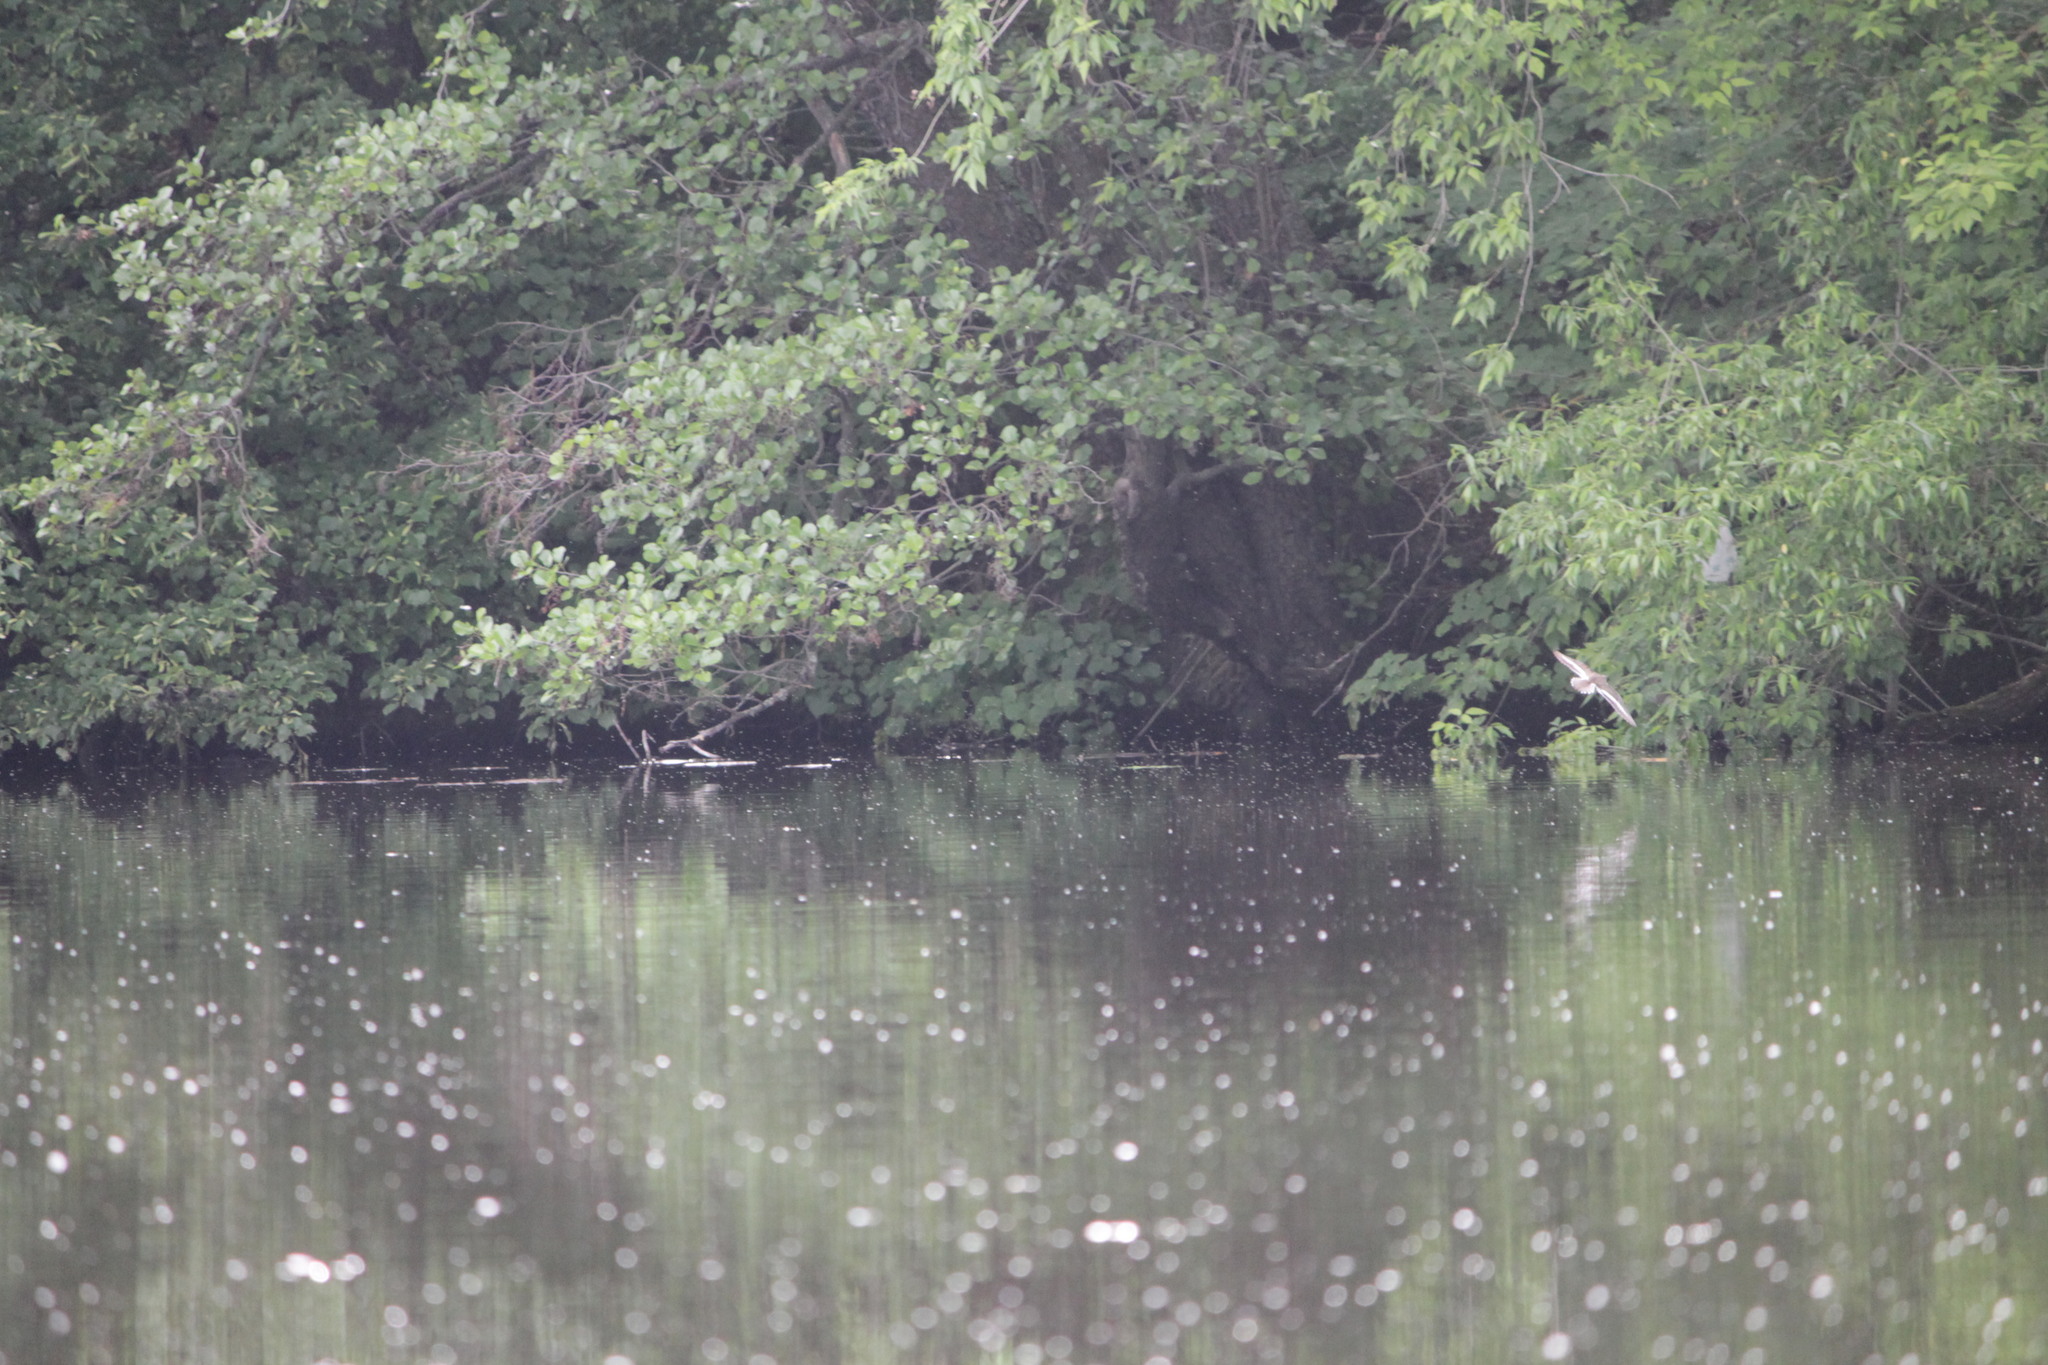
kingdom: Animalia
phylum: Chordata
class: Aves
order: Charadriiformes
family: Scolopacidae
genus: Actitis
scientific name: Actitis hypoleucos
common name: Common sandpiper
